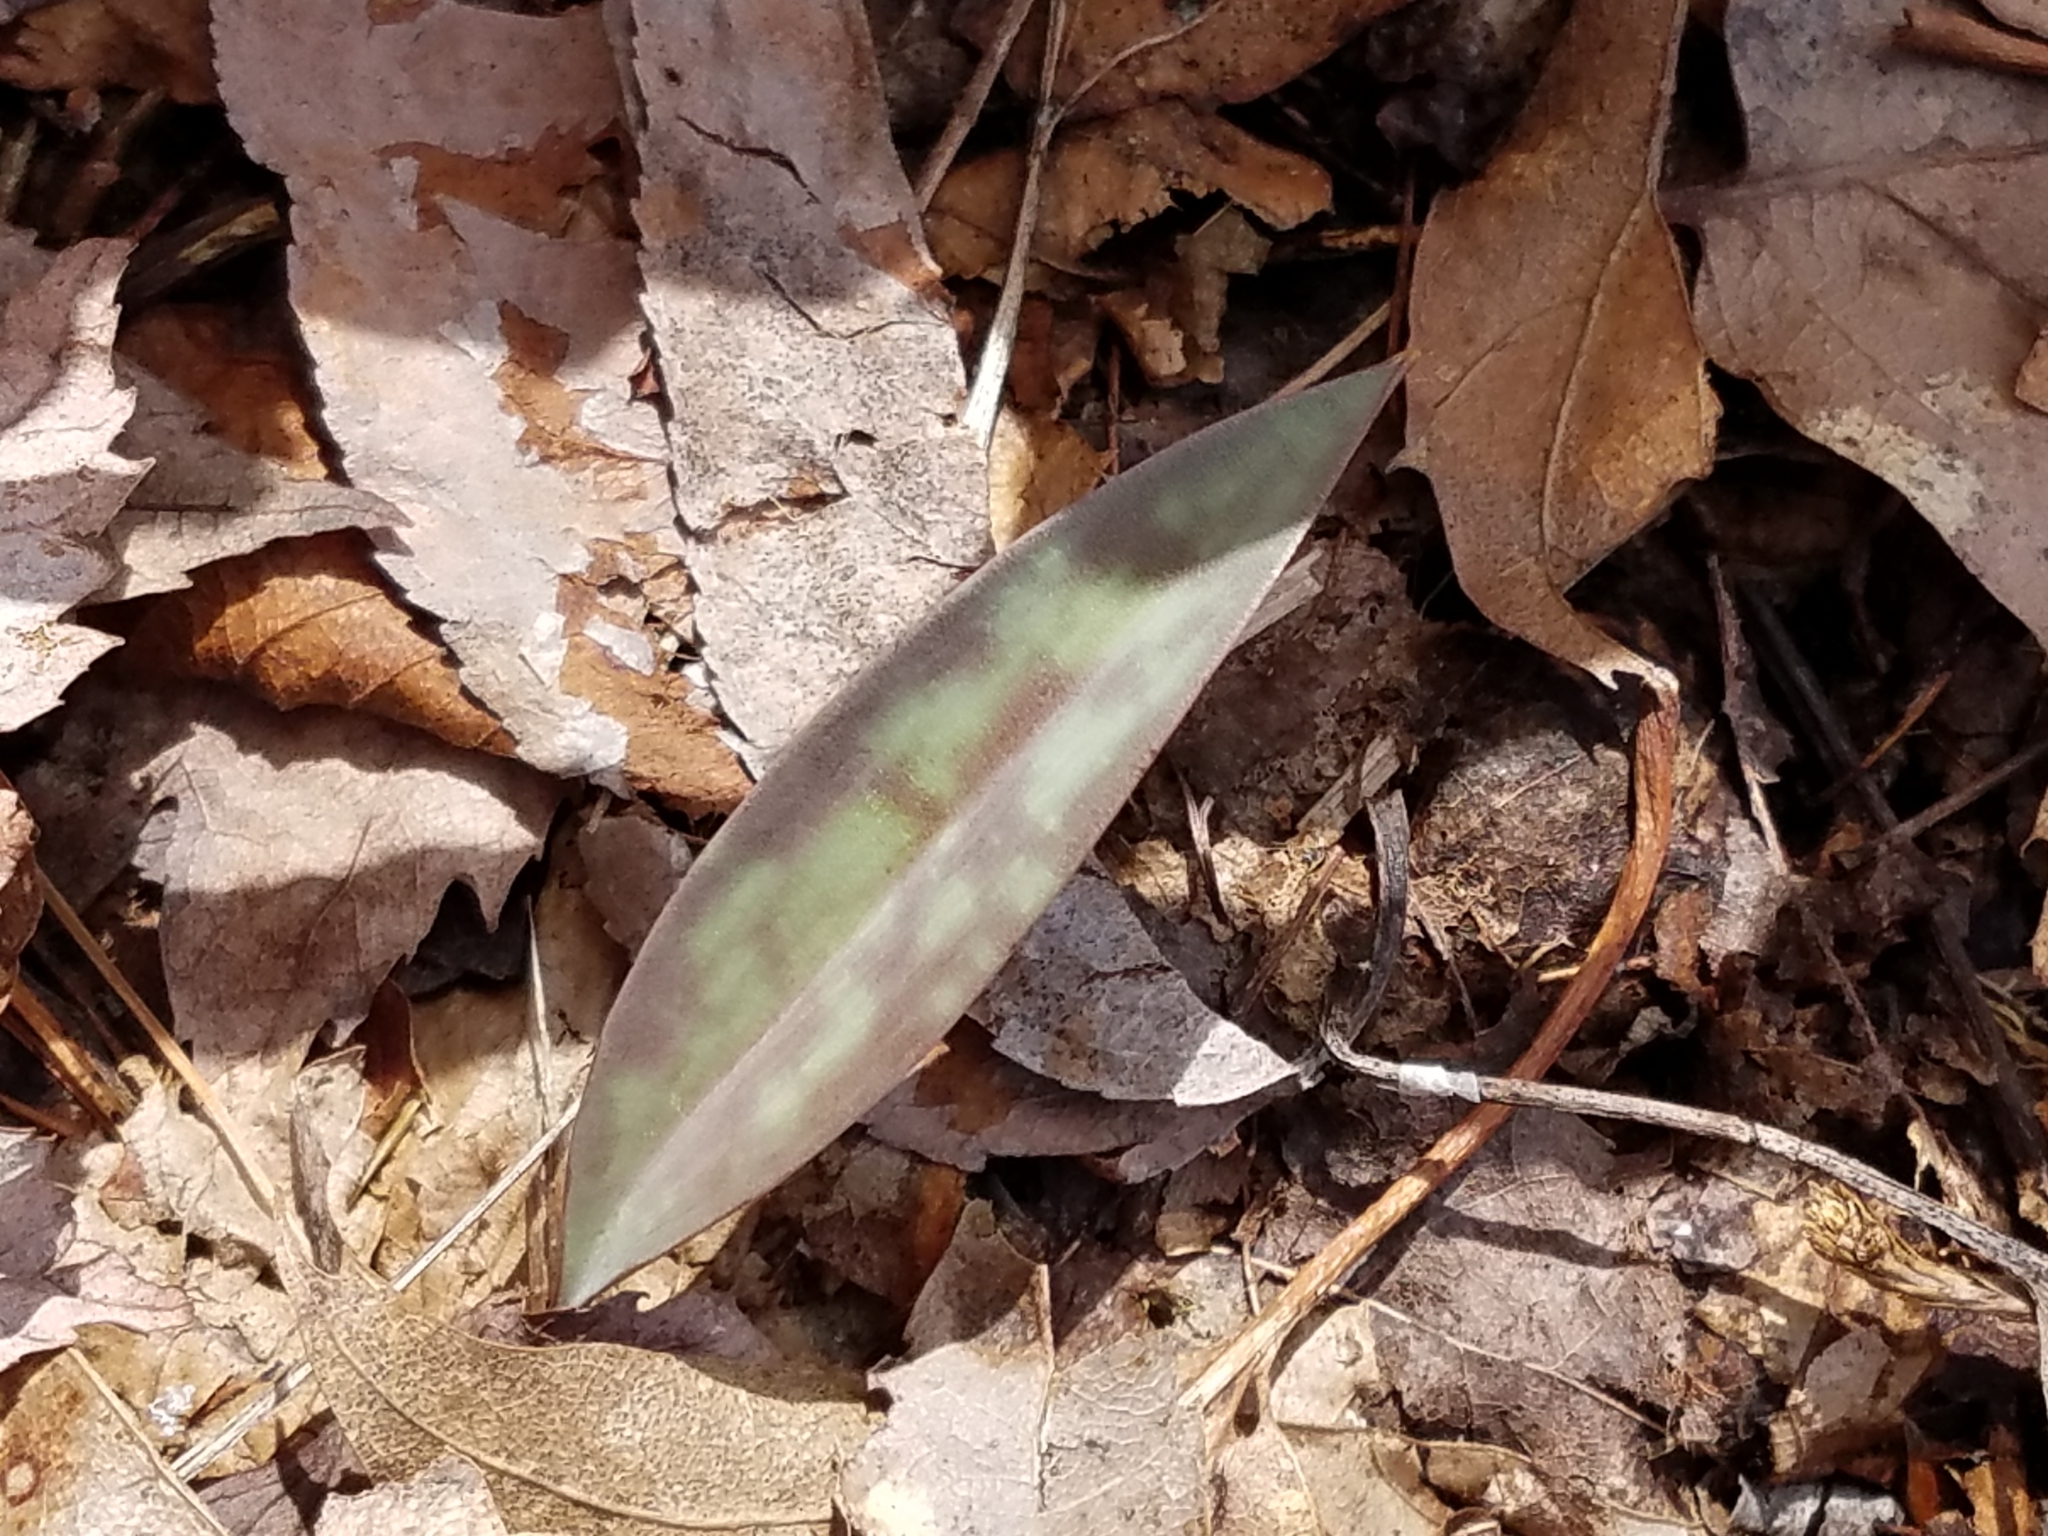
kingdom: Plantae
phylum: Tracheophyta
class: Liliopsida
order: Liliales
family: Liliaceae
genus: Erythronium
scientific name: Erythronium americanum
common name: Yellow adder's-tongue
